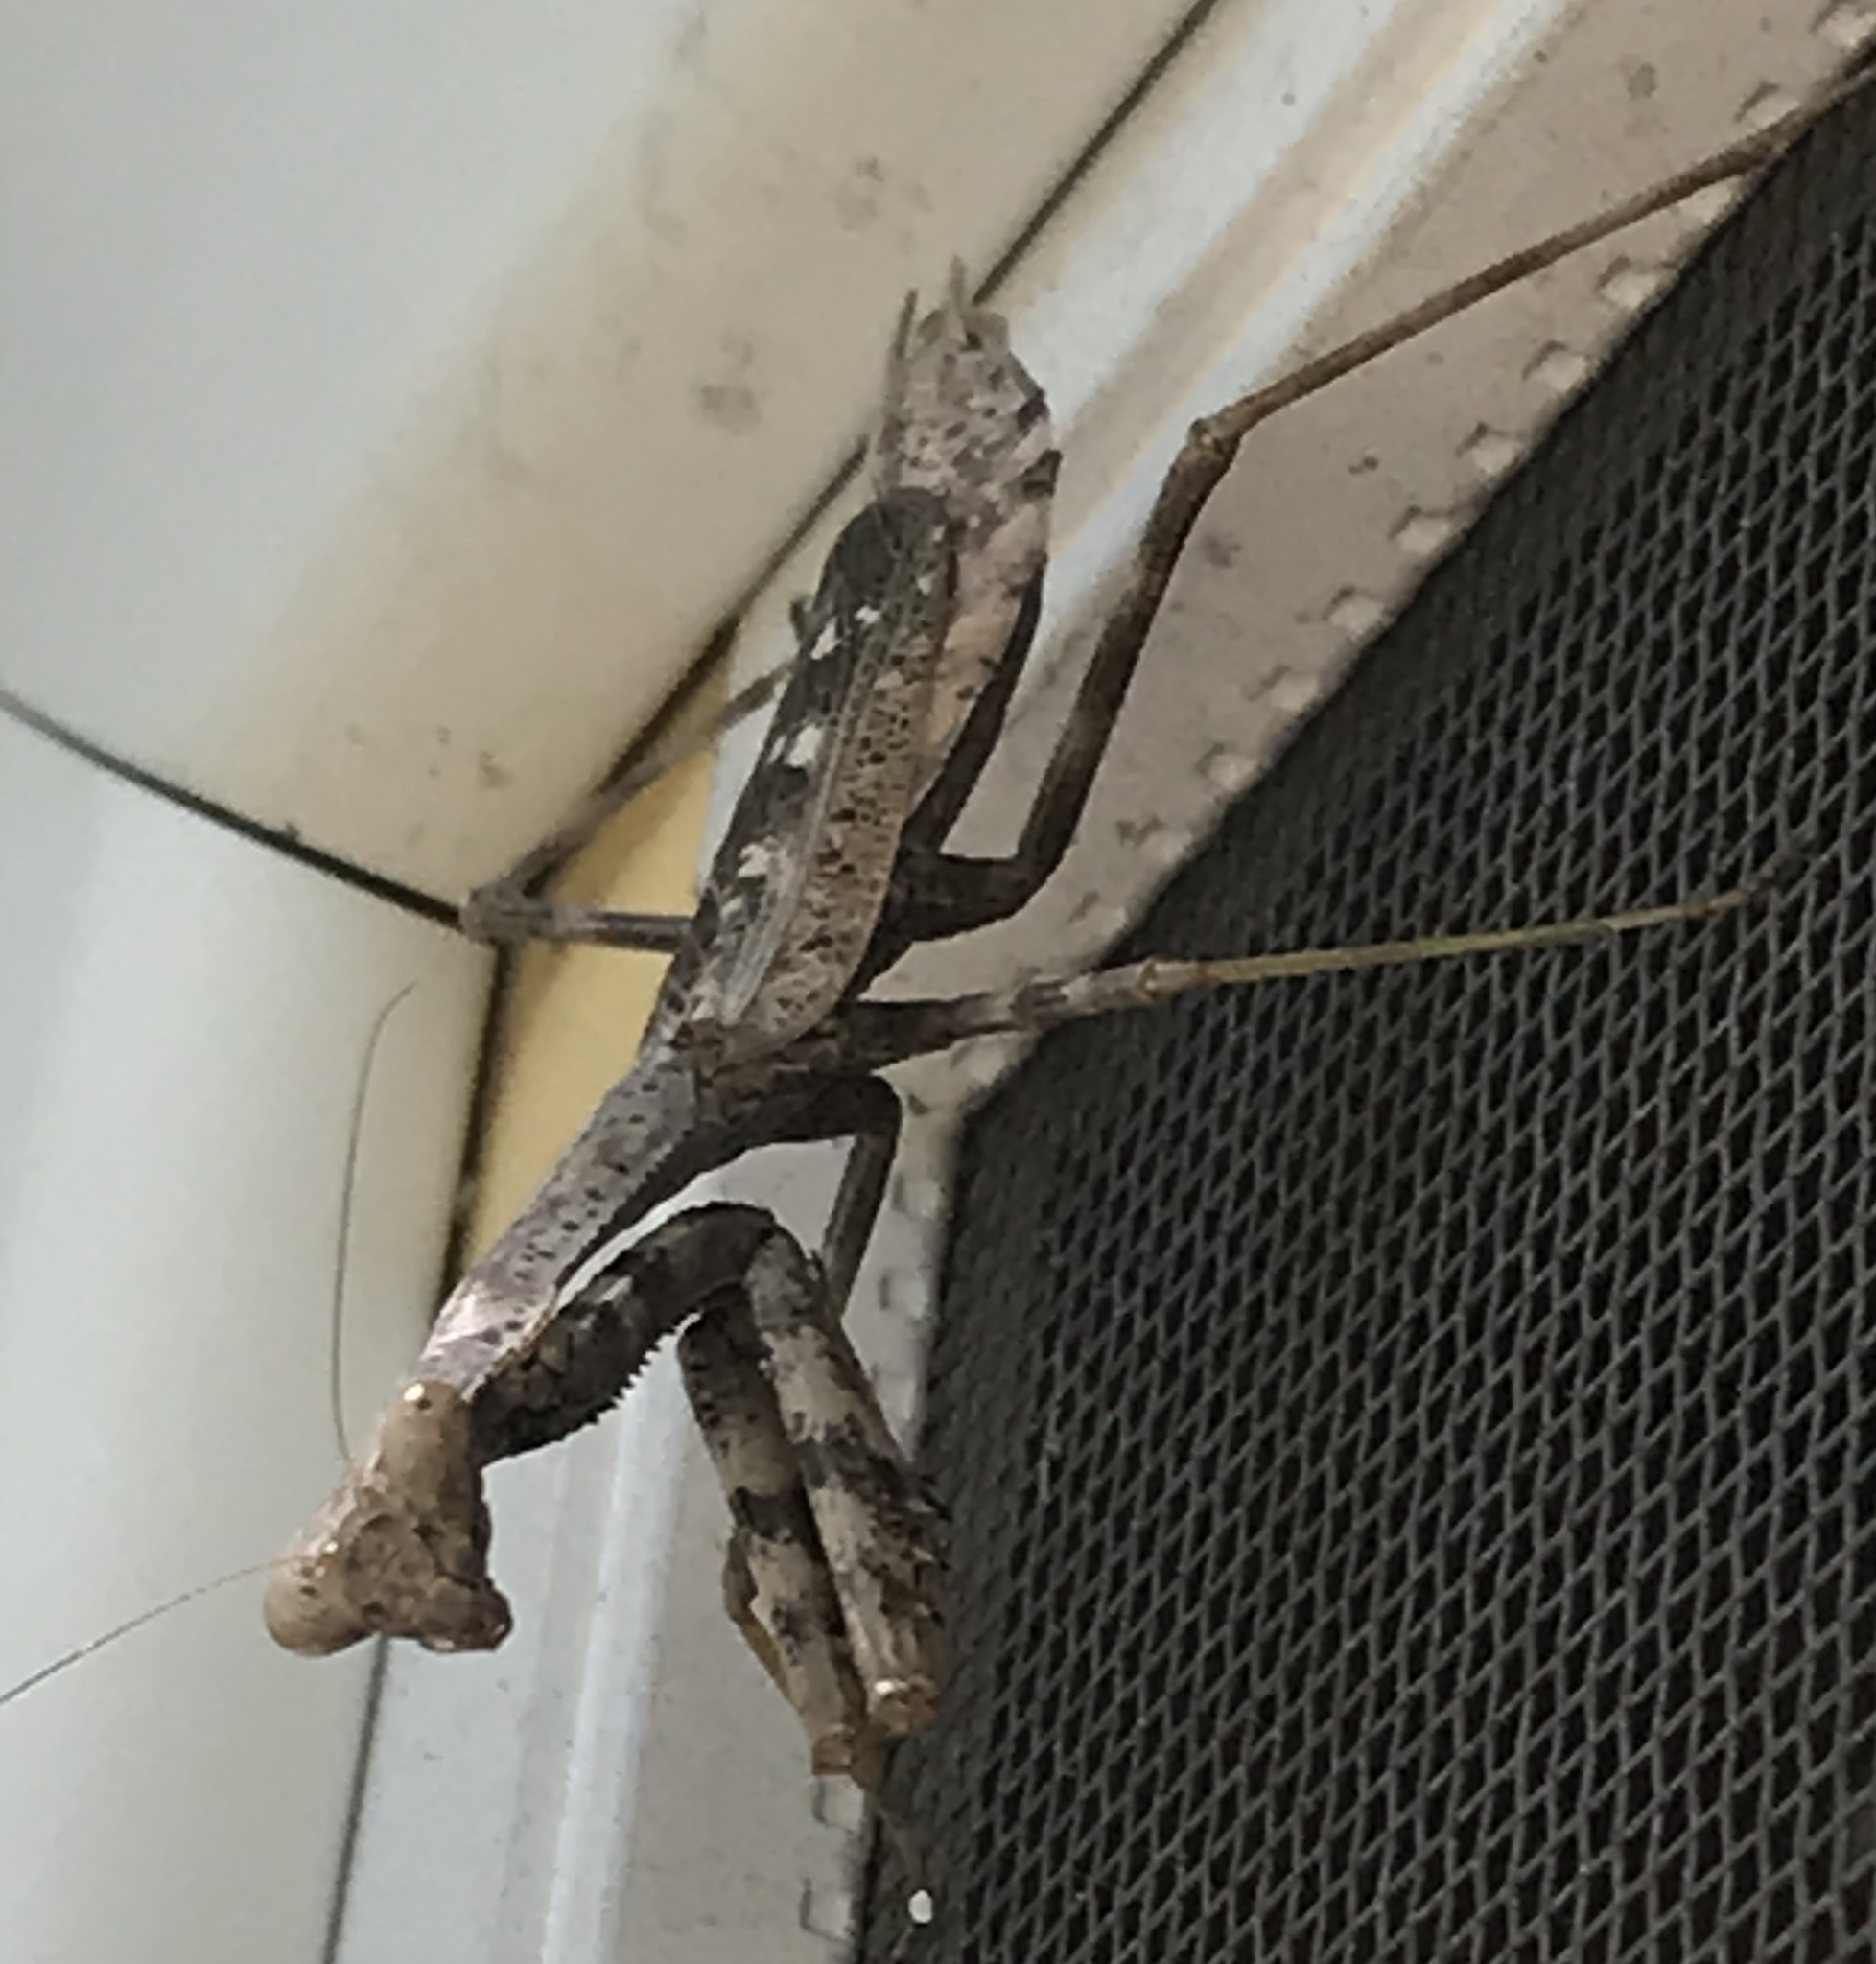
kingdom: Animalia
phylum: Arthropoda
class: Insecta
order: Mantodea
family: Mantidae
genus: Stagmomantis
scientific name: Stagmomantis carolina
